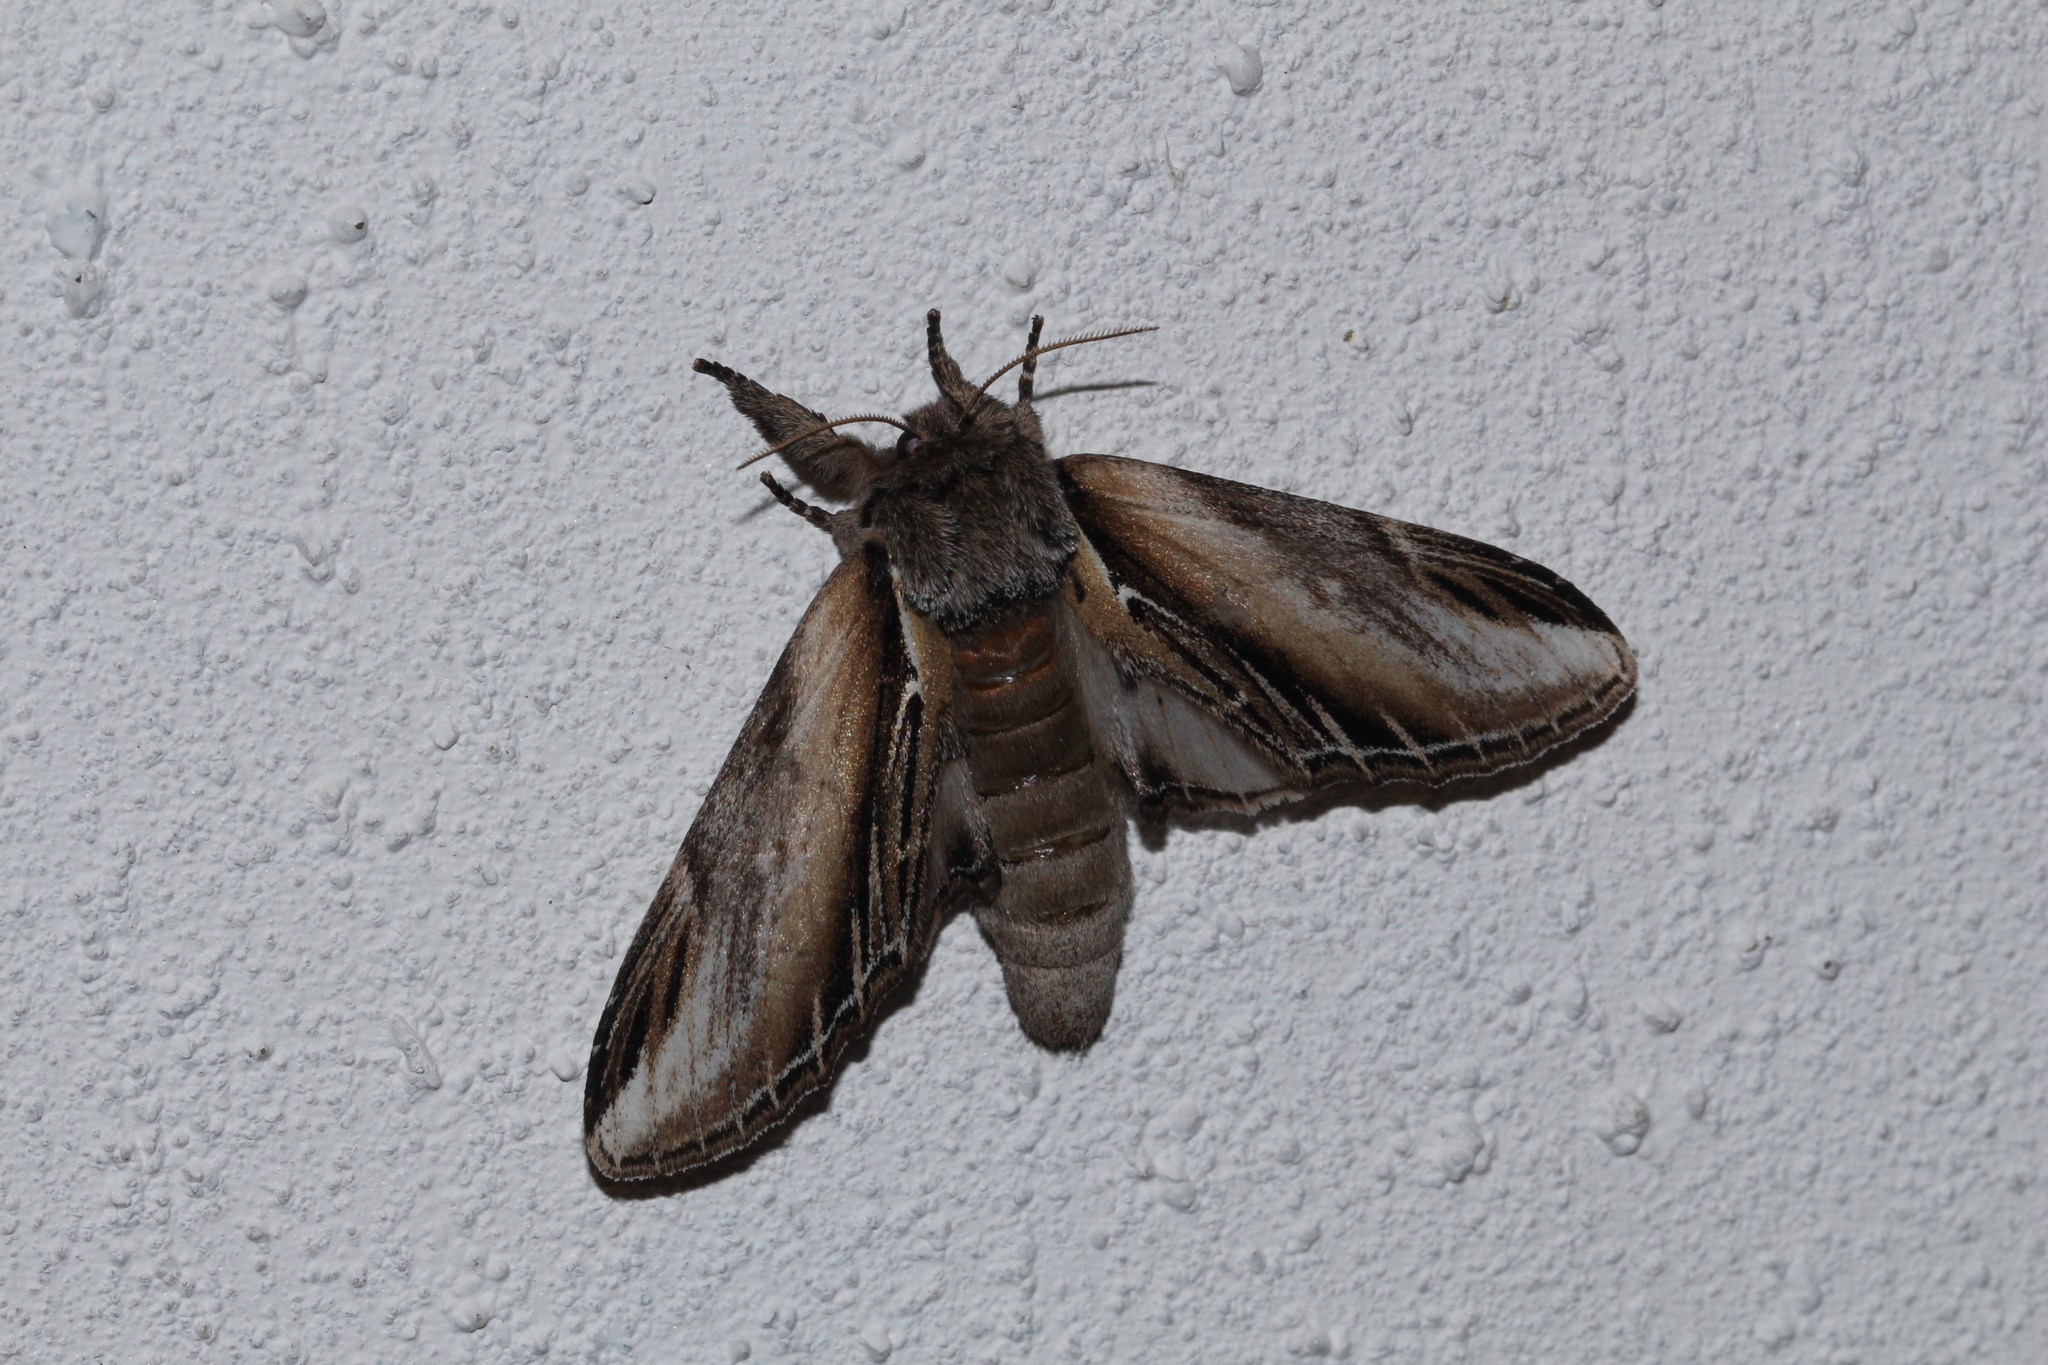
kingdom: Animalia
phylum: Arthropoda
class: Insecta
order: Lepidoptera
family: Notodontidae
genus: Pheosia
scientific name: Pheosia tremula
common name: Swallow prominent
